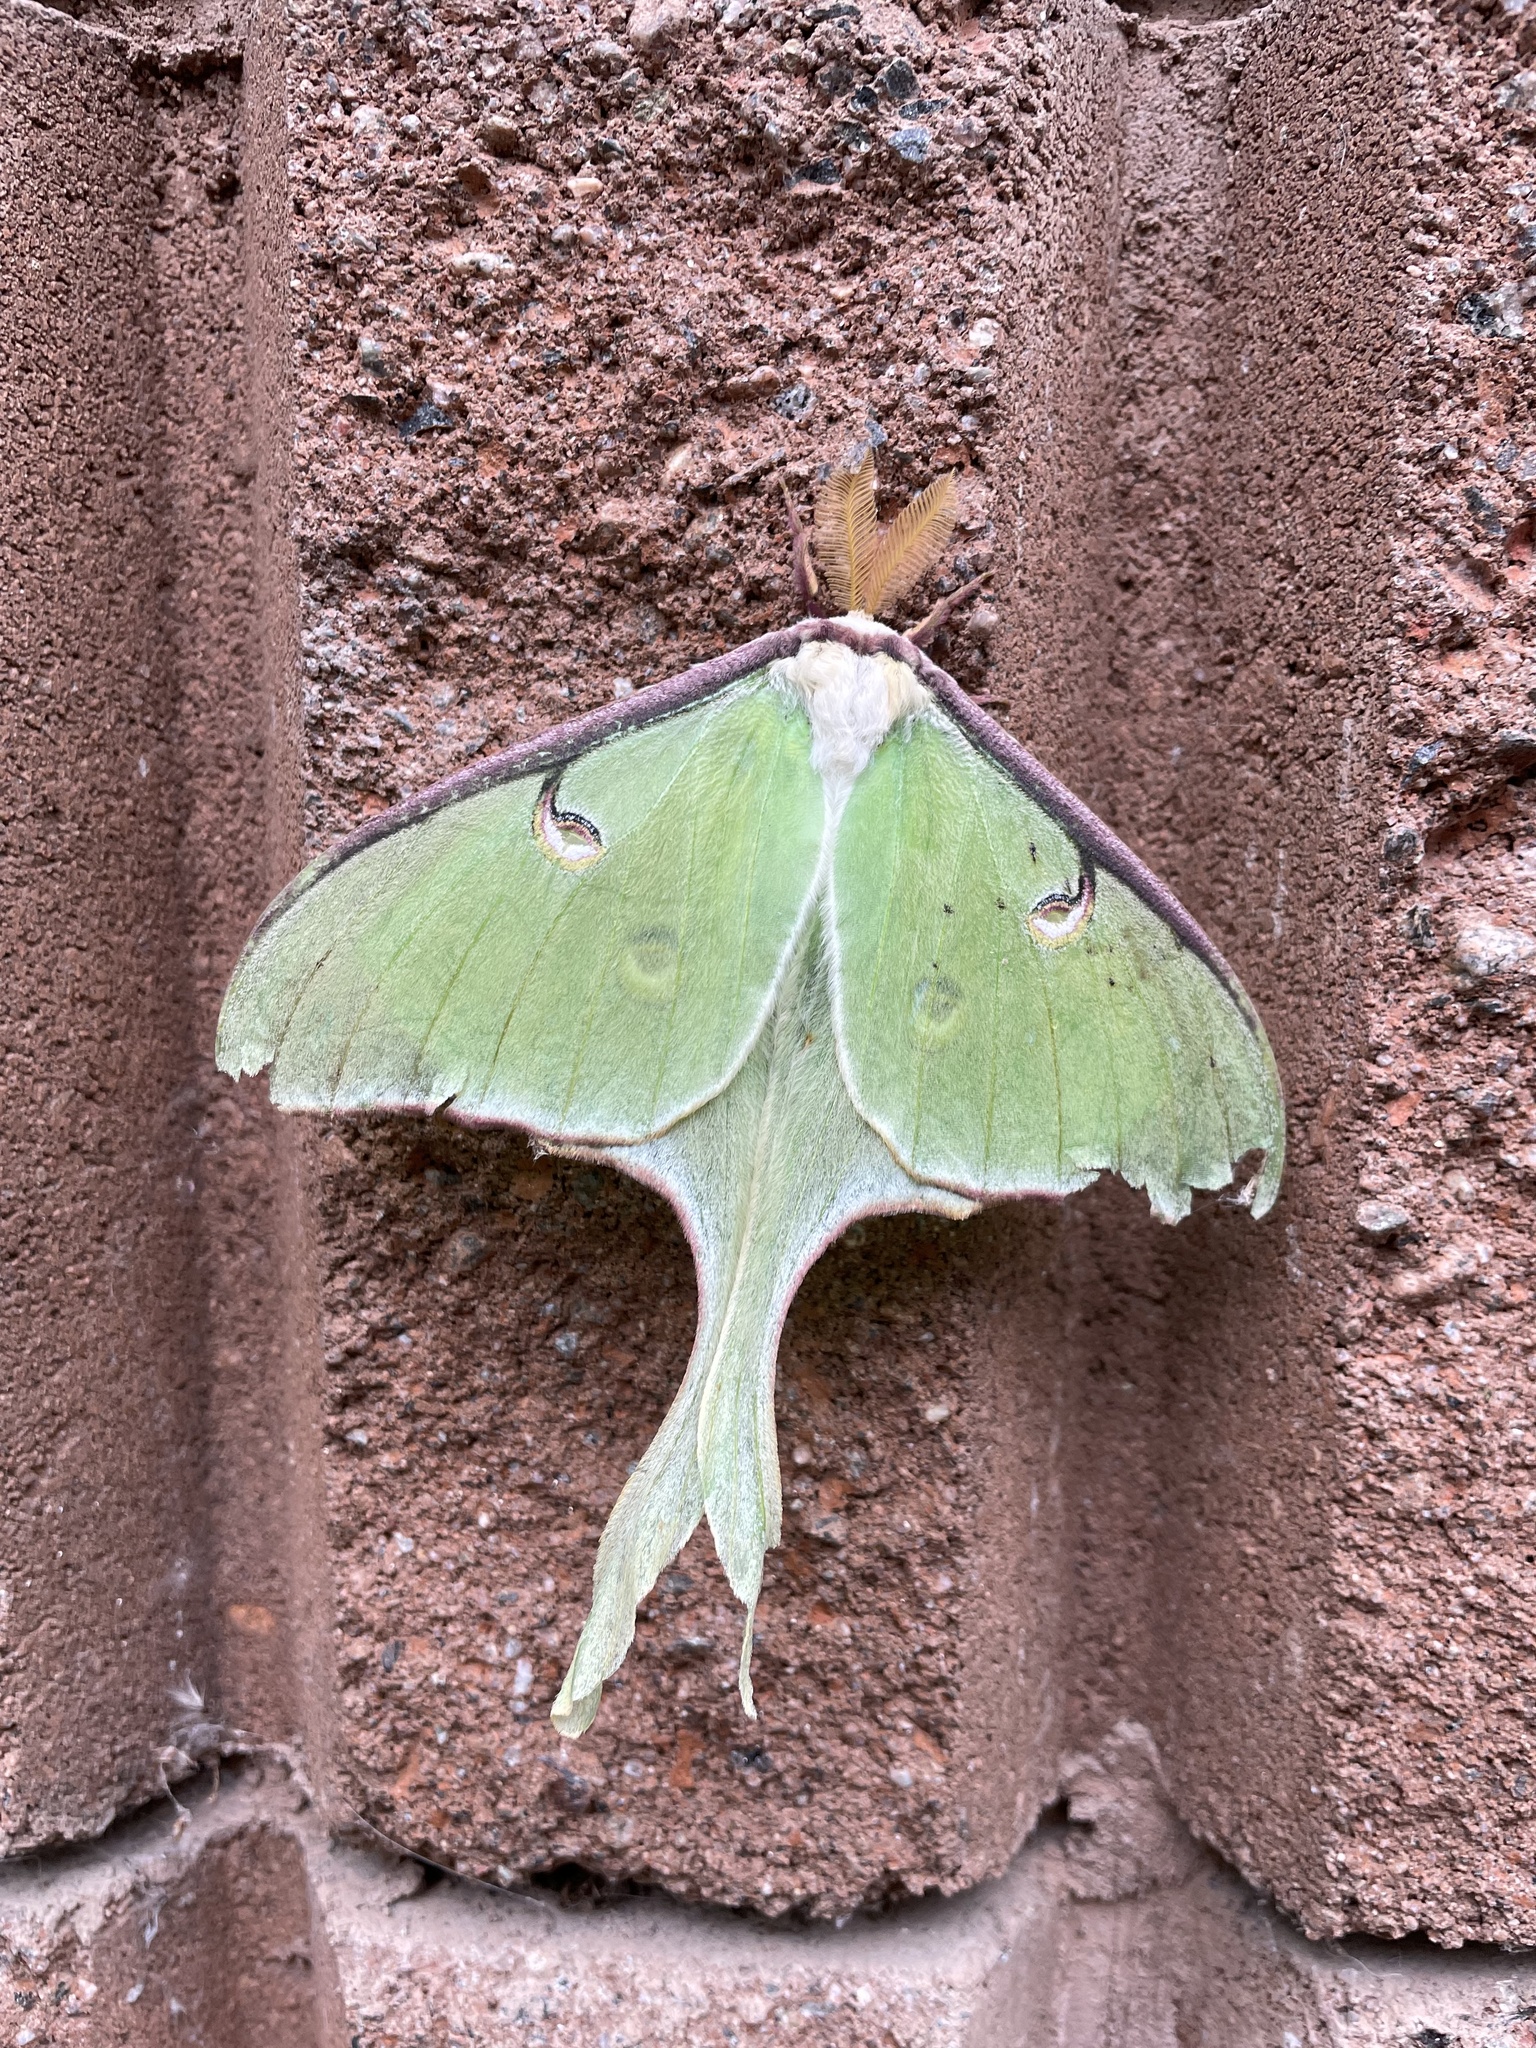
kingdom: Animalia
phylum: Arthropoda
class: Insecta
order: Lepidoptera
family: Saturniidae
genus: Actias
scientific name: Actias luna
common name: Luna moth
